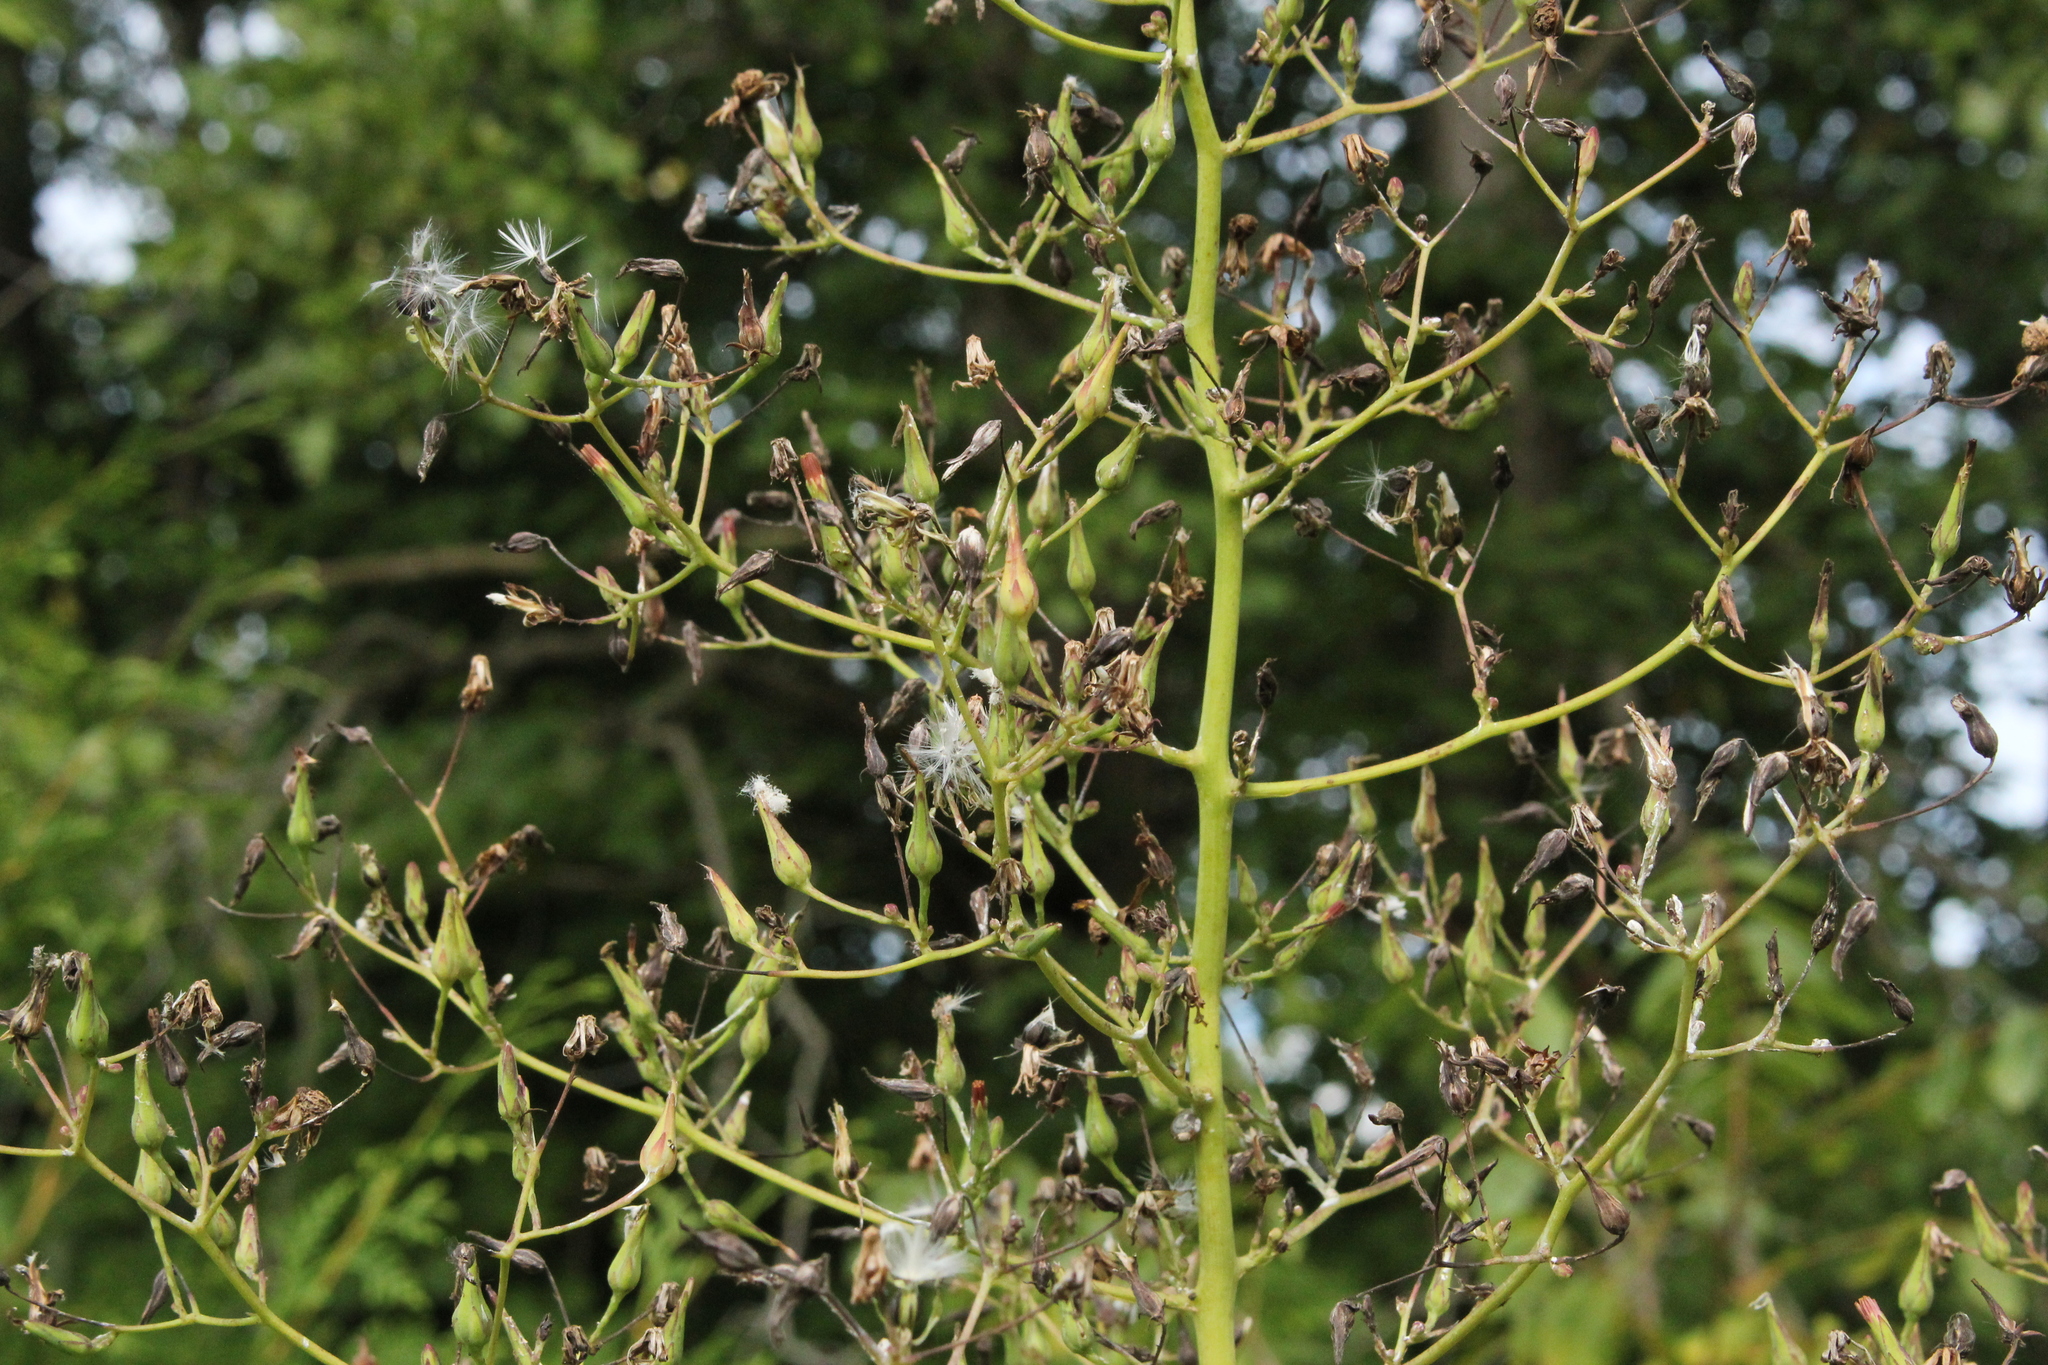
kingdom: Plantae
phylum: Tracheophyta
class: Magnoliopsida
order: Asterales
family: Asteraceae
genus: Lactuca
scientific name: Lactuca canadensis
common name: Canada lettuce
